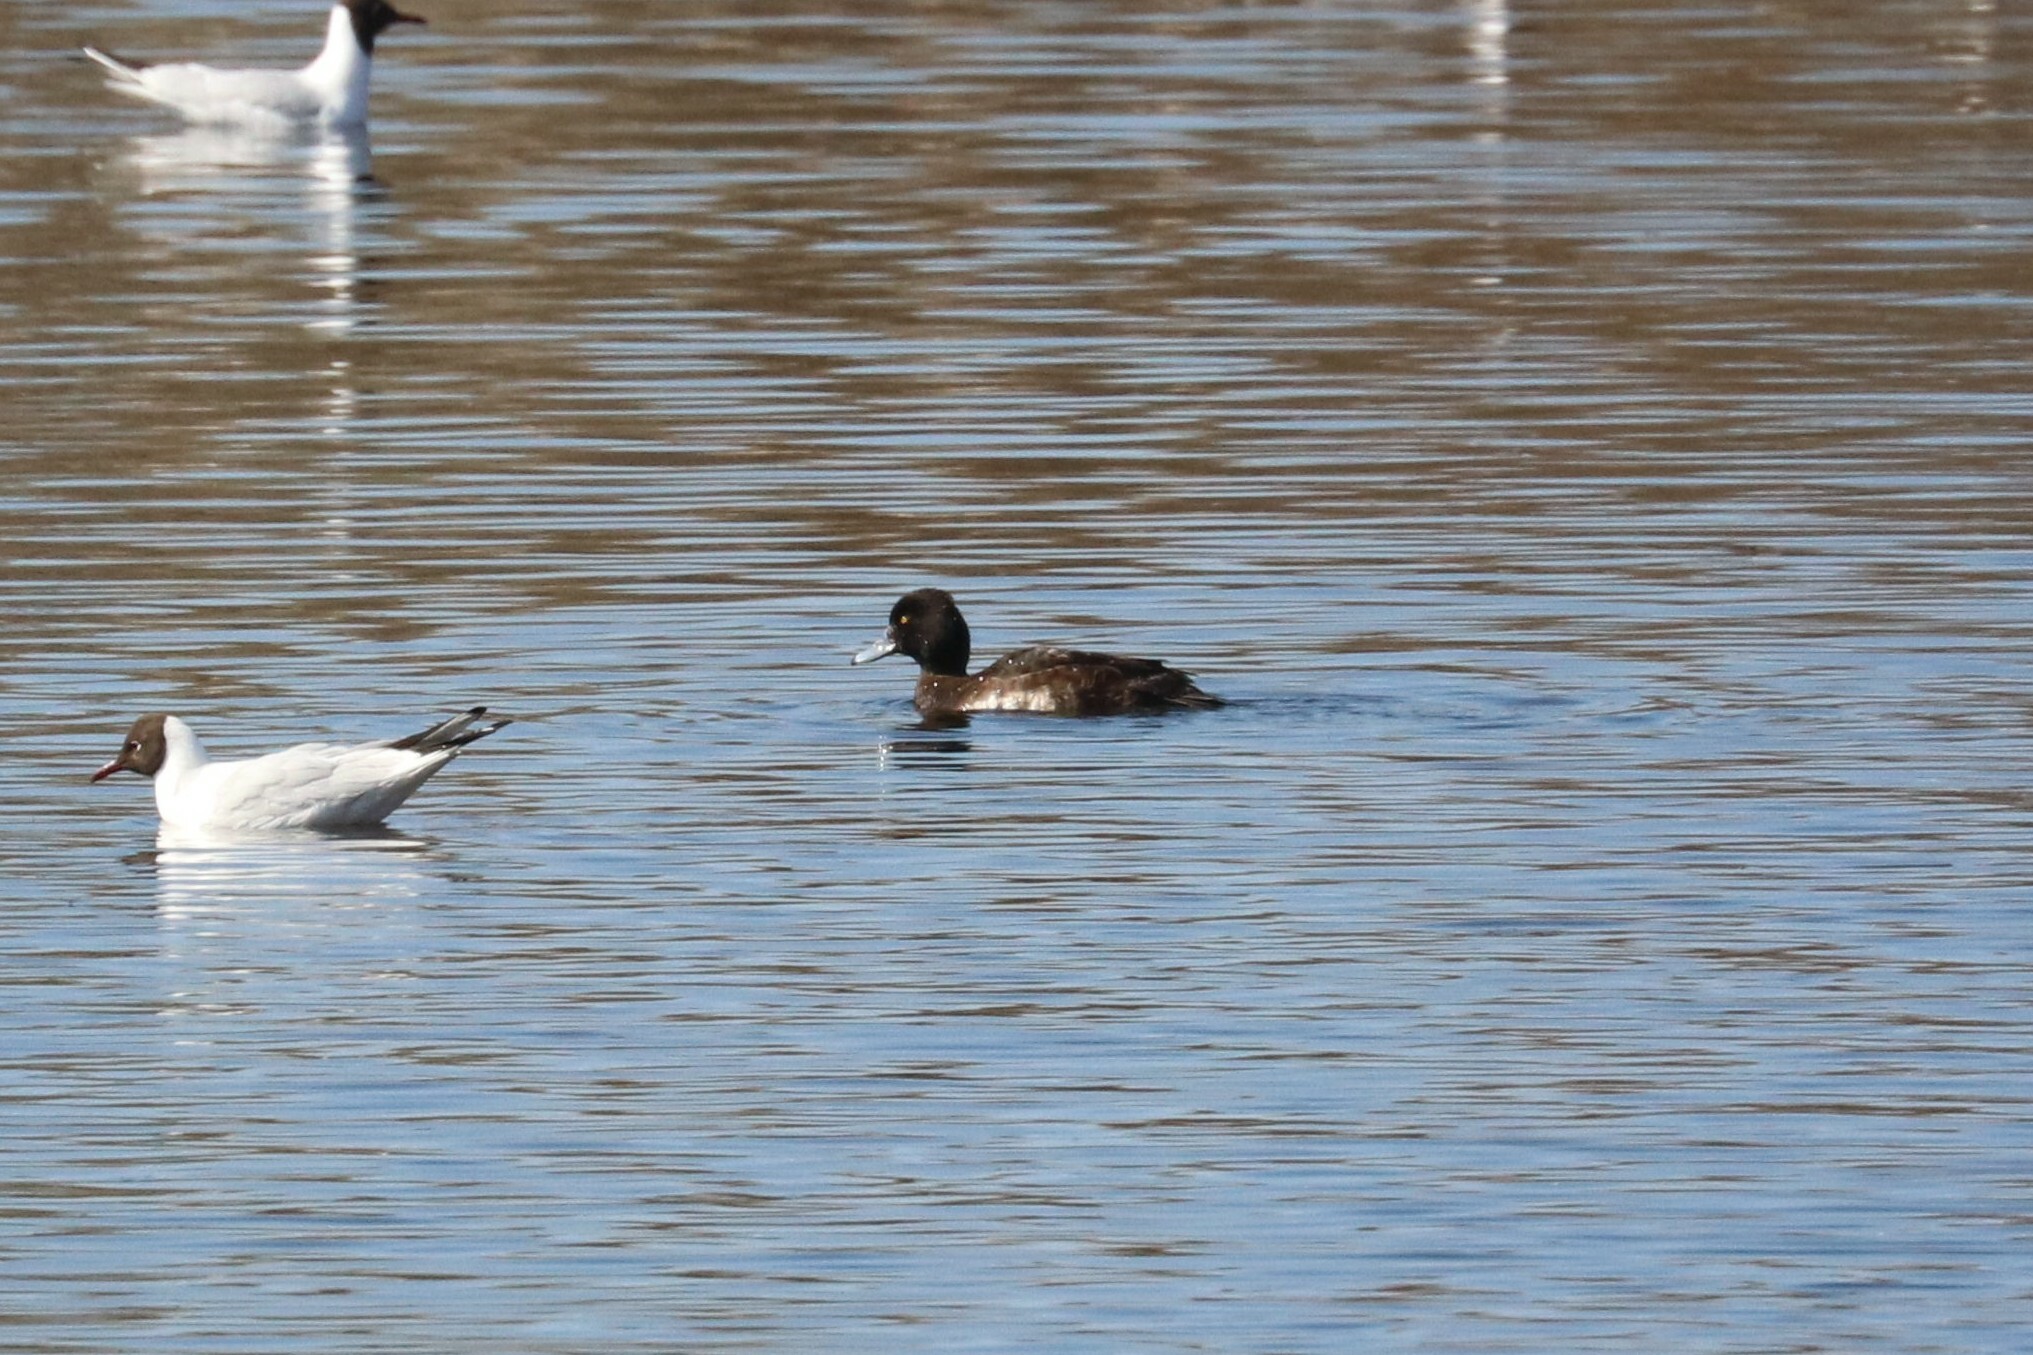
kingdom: Animalia
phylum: Chordata
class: Aves
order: Anseriformes
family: Anatidae
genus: Aythya
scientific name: Aythya fuligula
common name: Tufted duck
